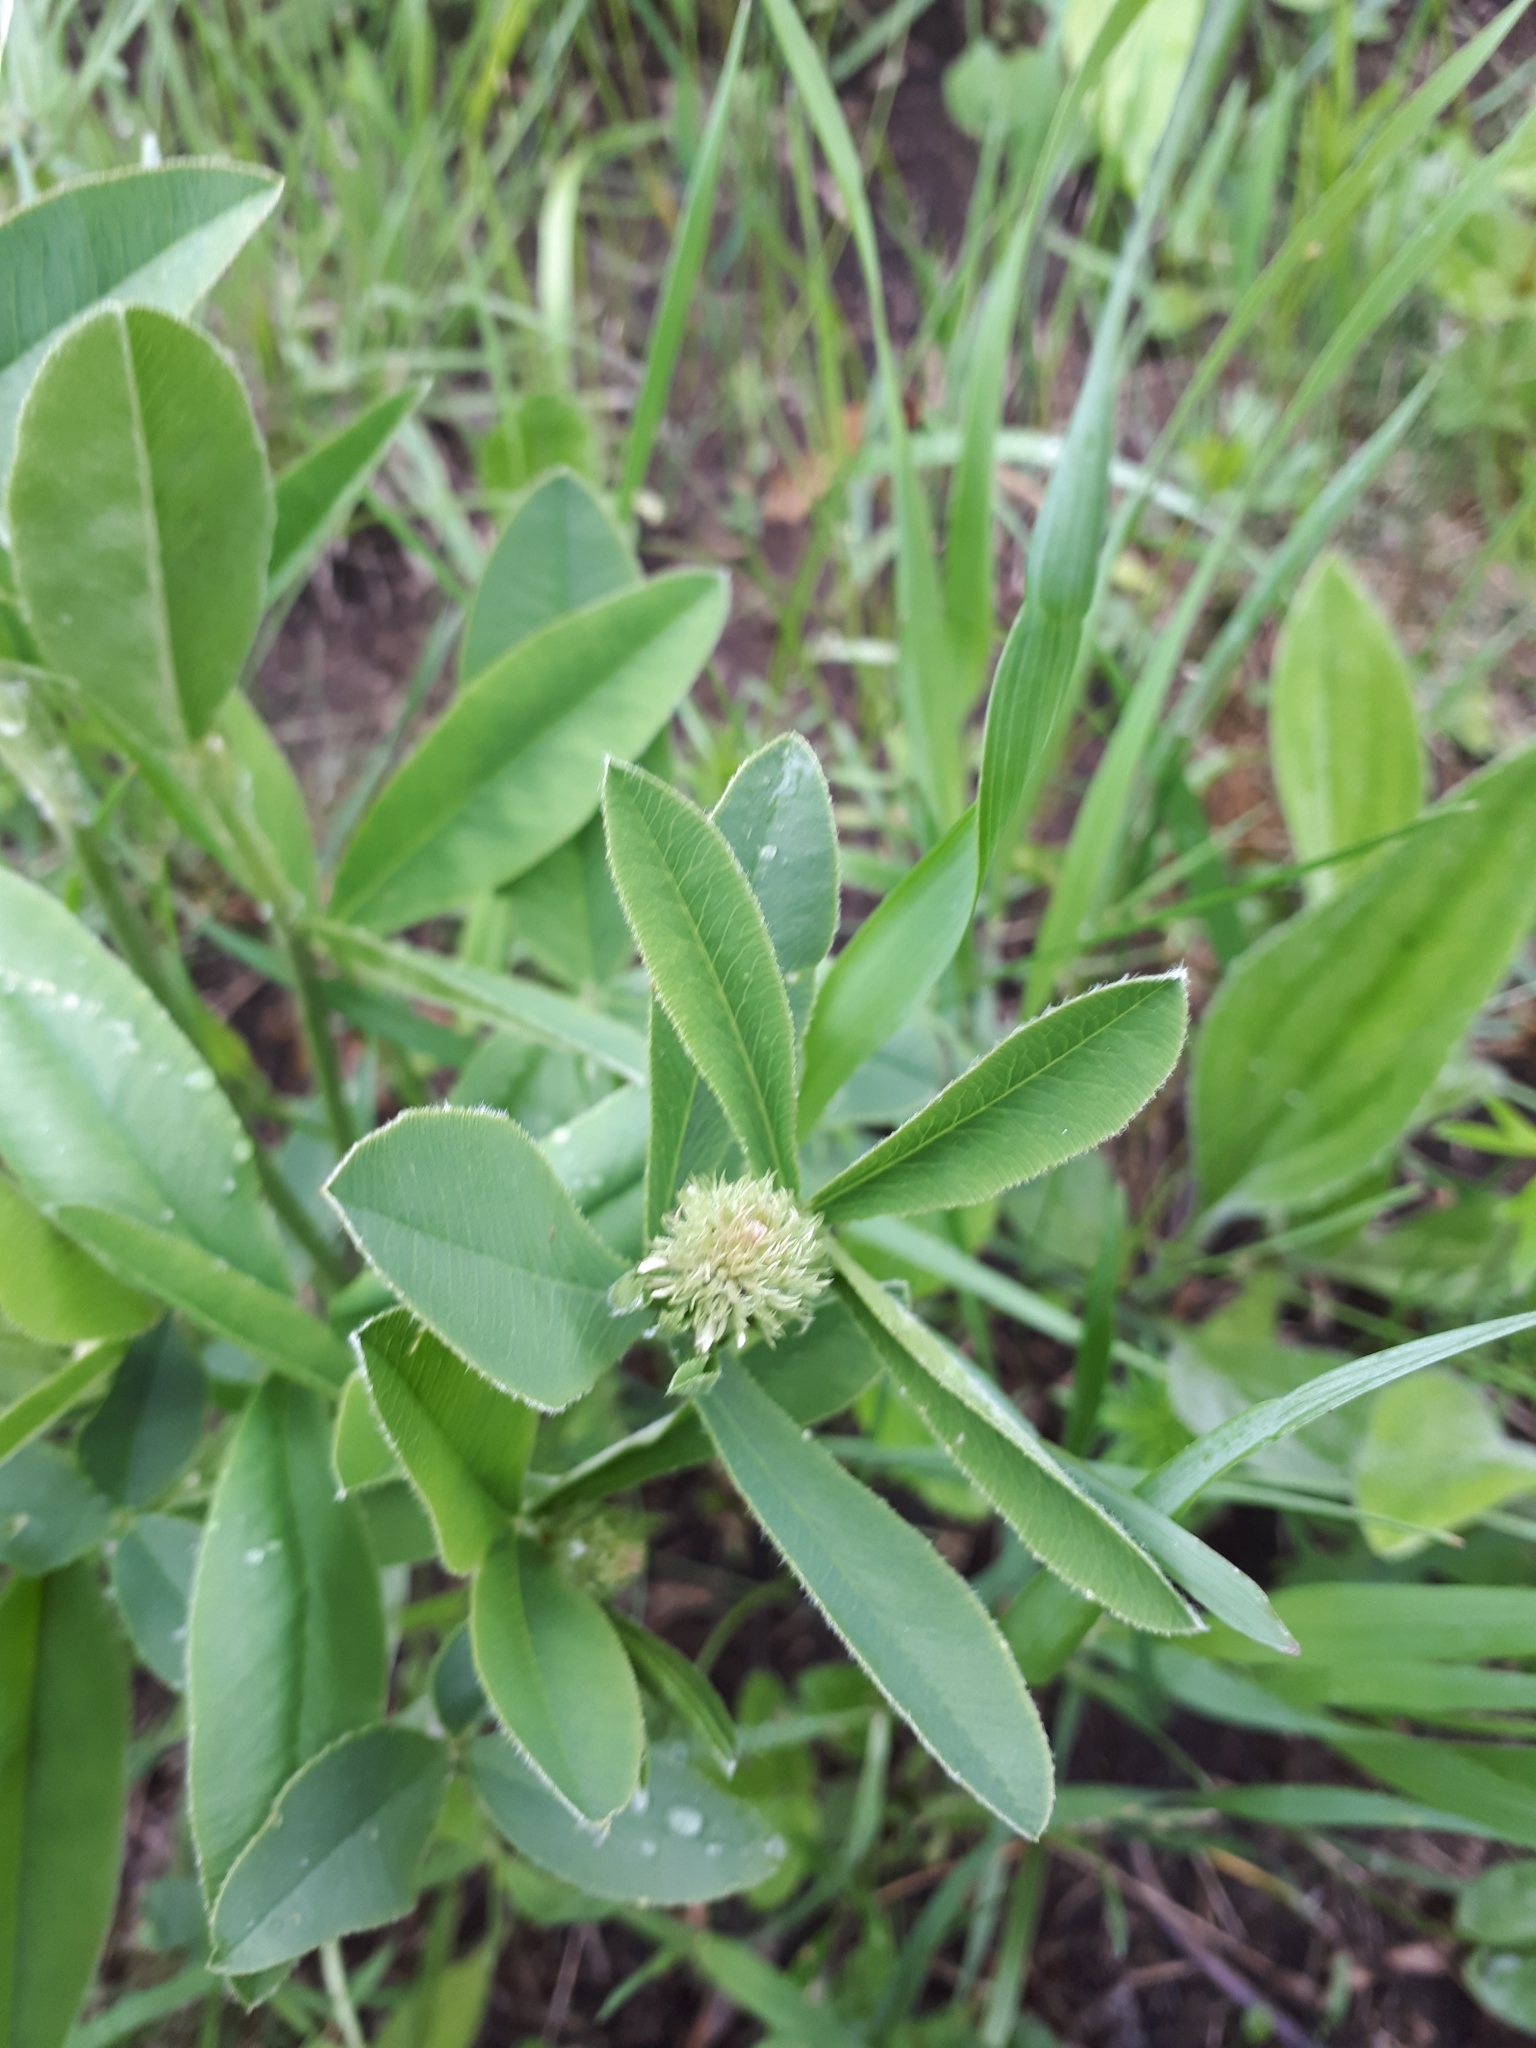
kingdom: Plantae
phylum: Tracheophyta
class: Magnoliopsida
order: Fabales
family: Fabaceae
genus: Trifolium
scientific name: Trifolium montanum
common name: Mountain clover
